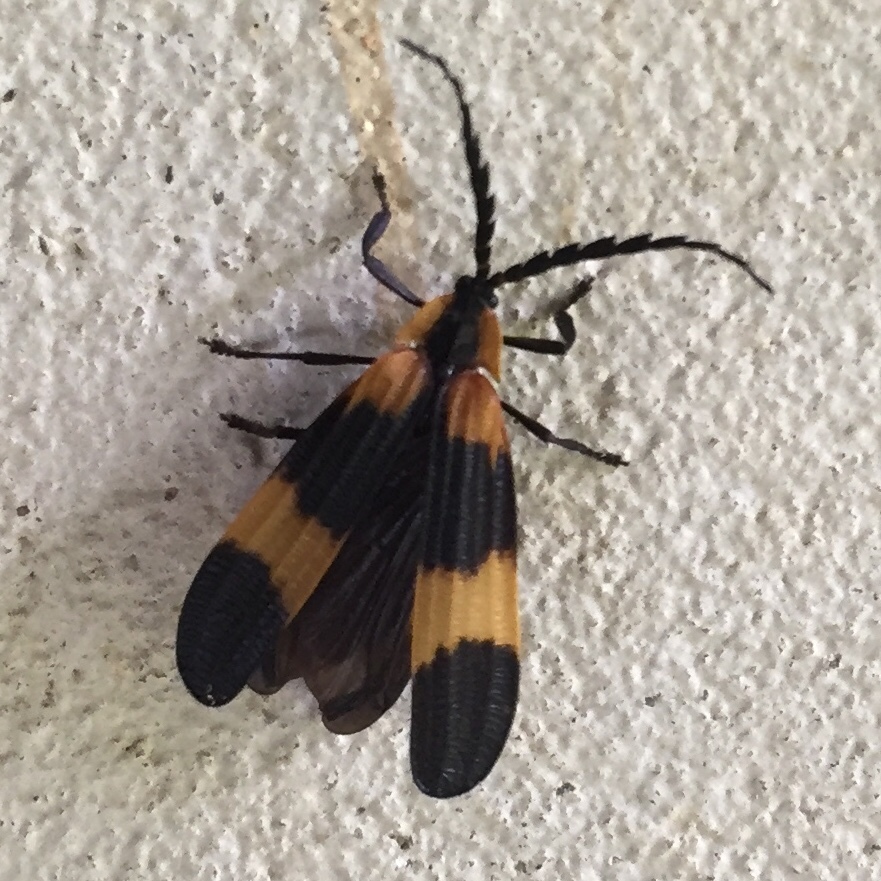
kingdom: Animalia
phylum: Arthropoda
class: Insecta
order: Coleoptera
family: Lycidae
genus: Calopteron
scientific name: Calopteron reticulatum
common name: Banded net-winged beetle
